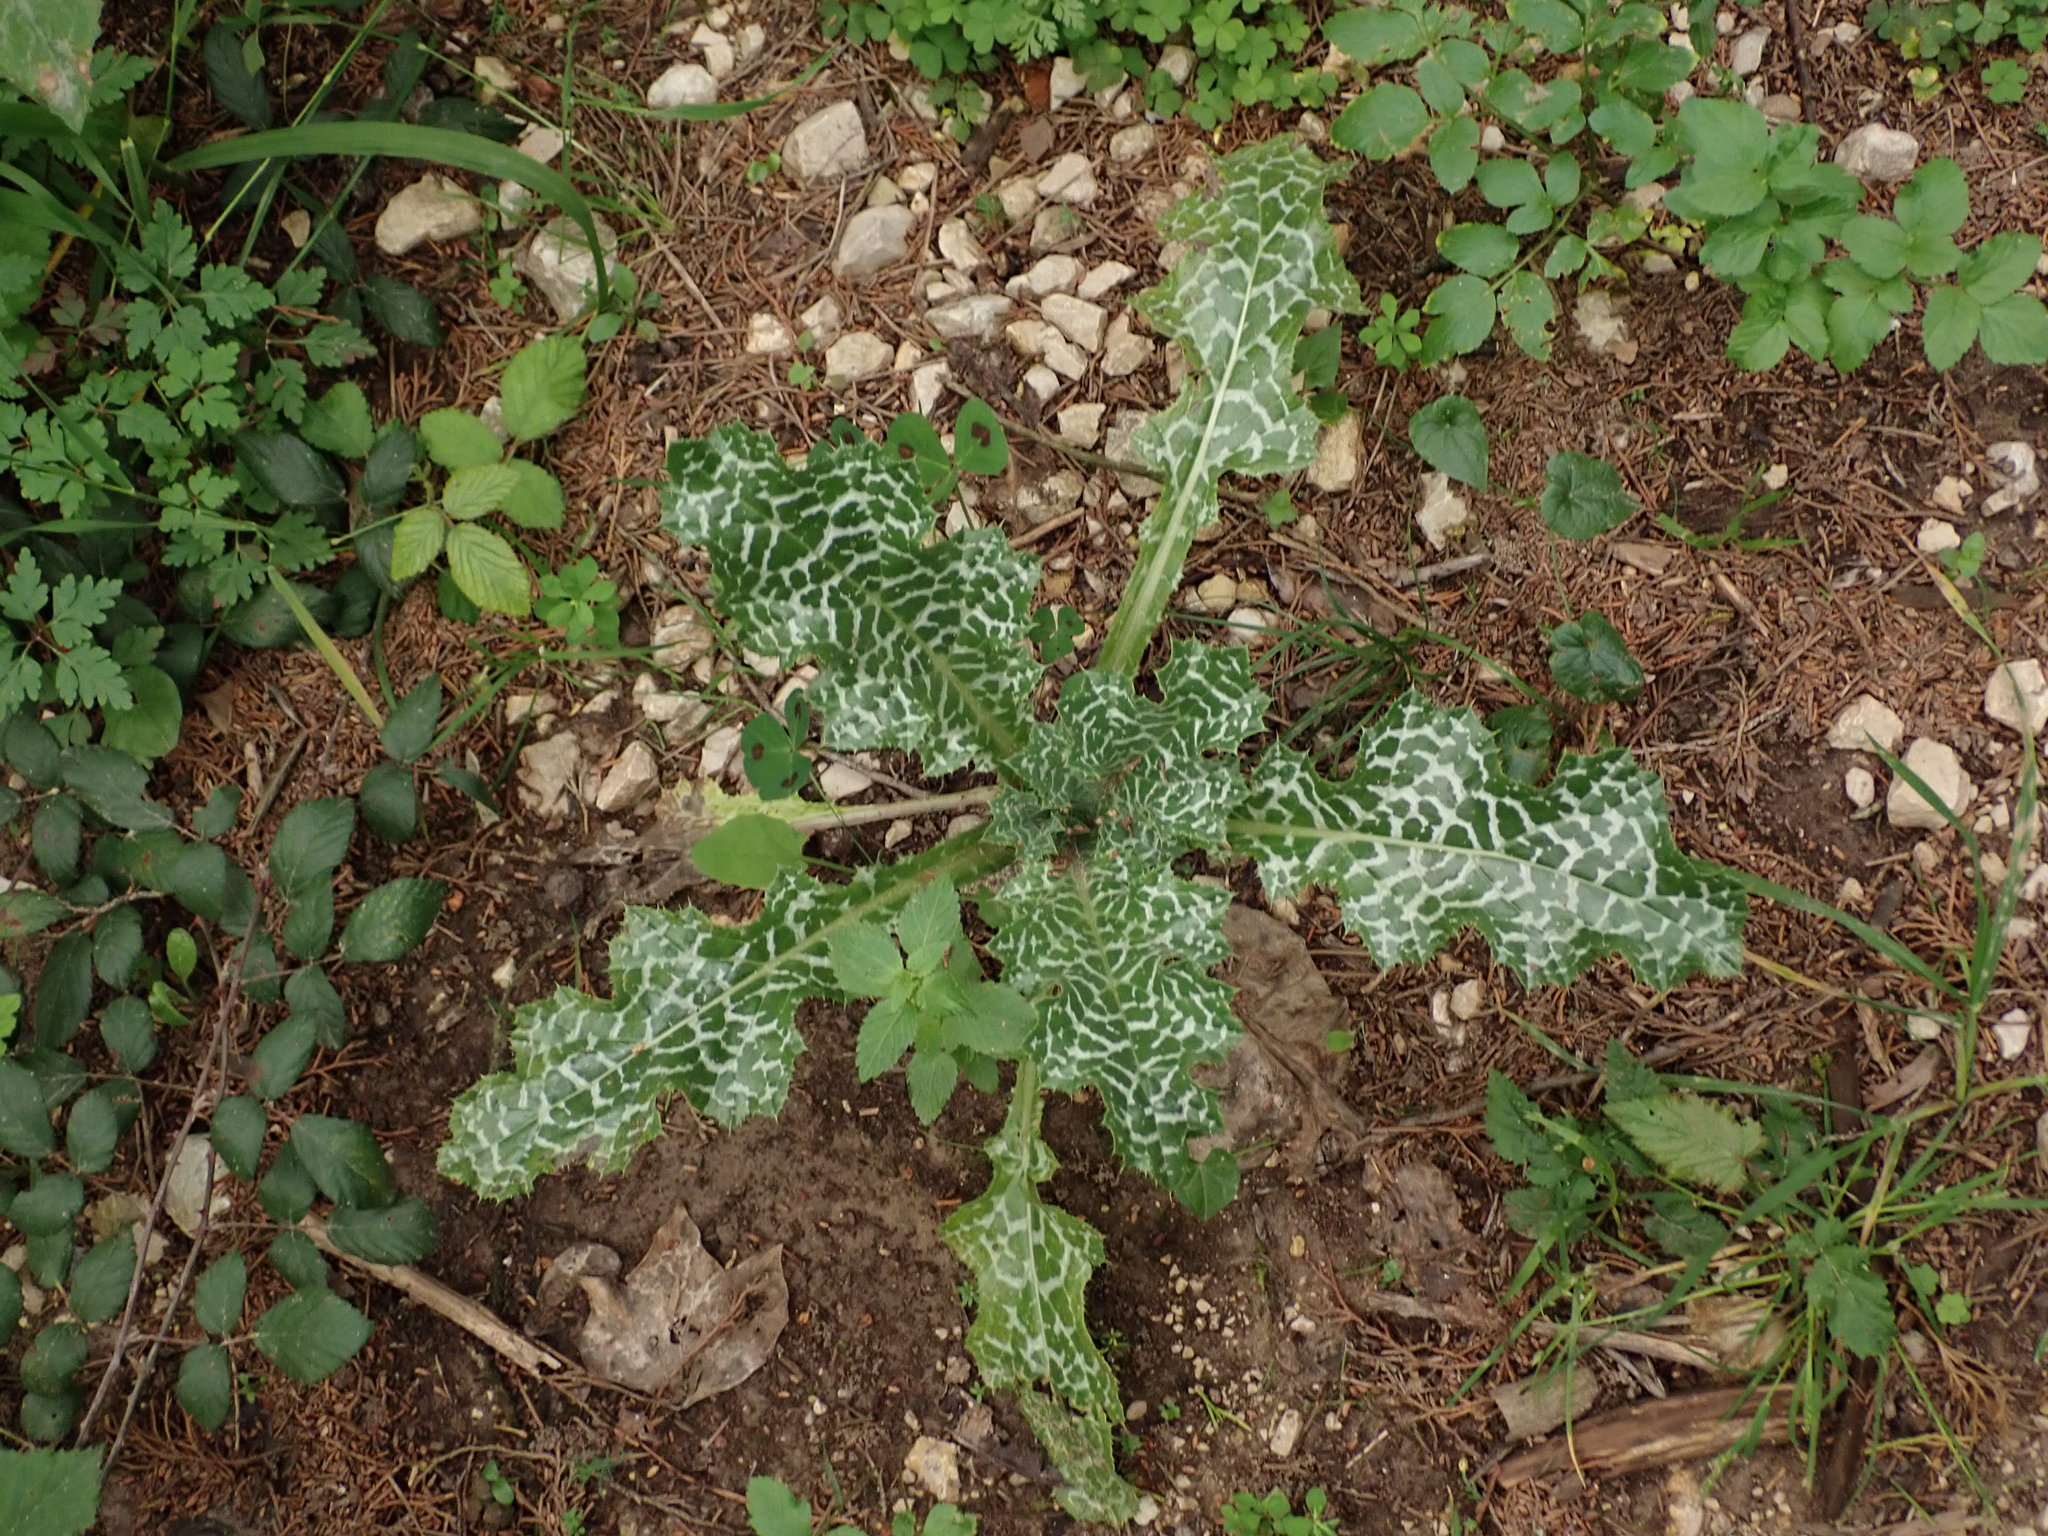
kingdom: Plantae
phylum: Tracheophyta
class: Magnoliopsida
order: Asterales
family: Asteraceae
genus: Silybum
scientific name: Silybum marianum
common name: Milk thistle
